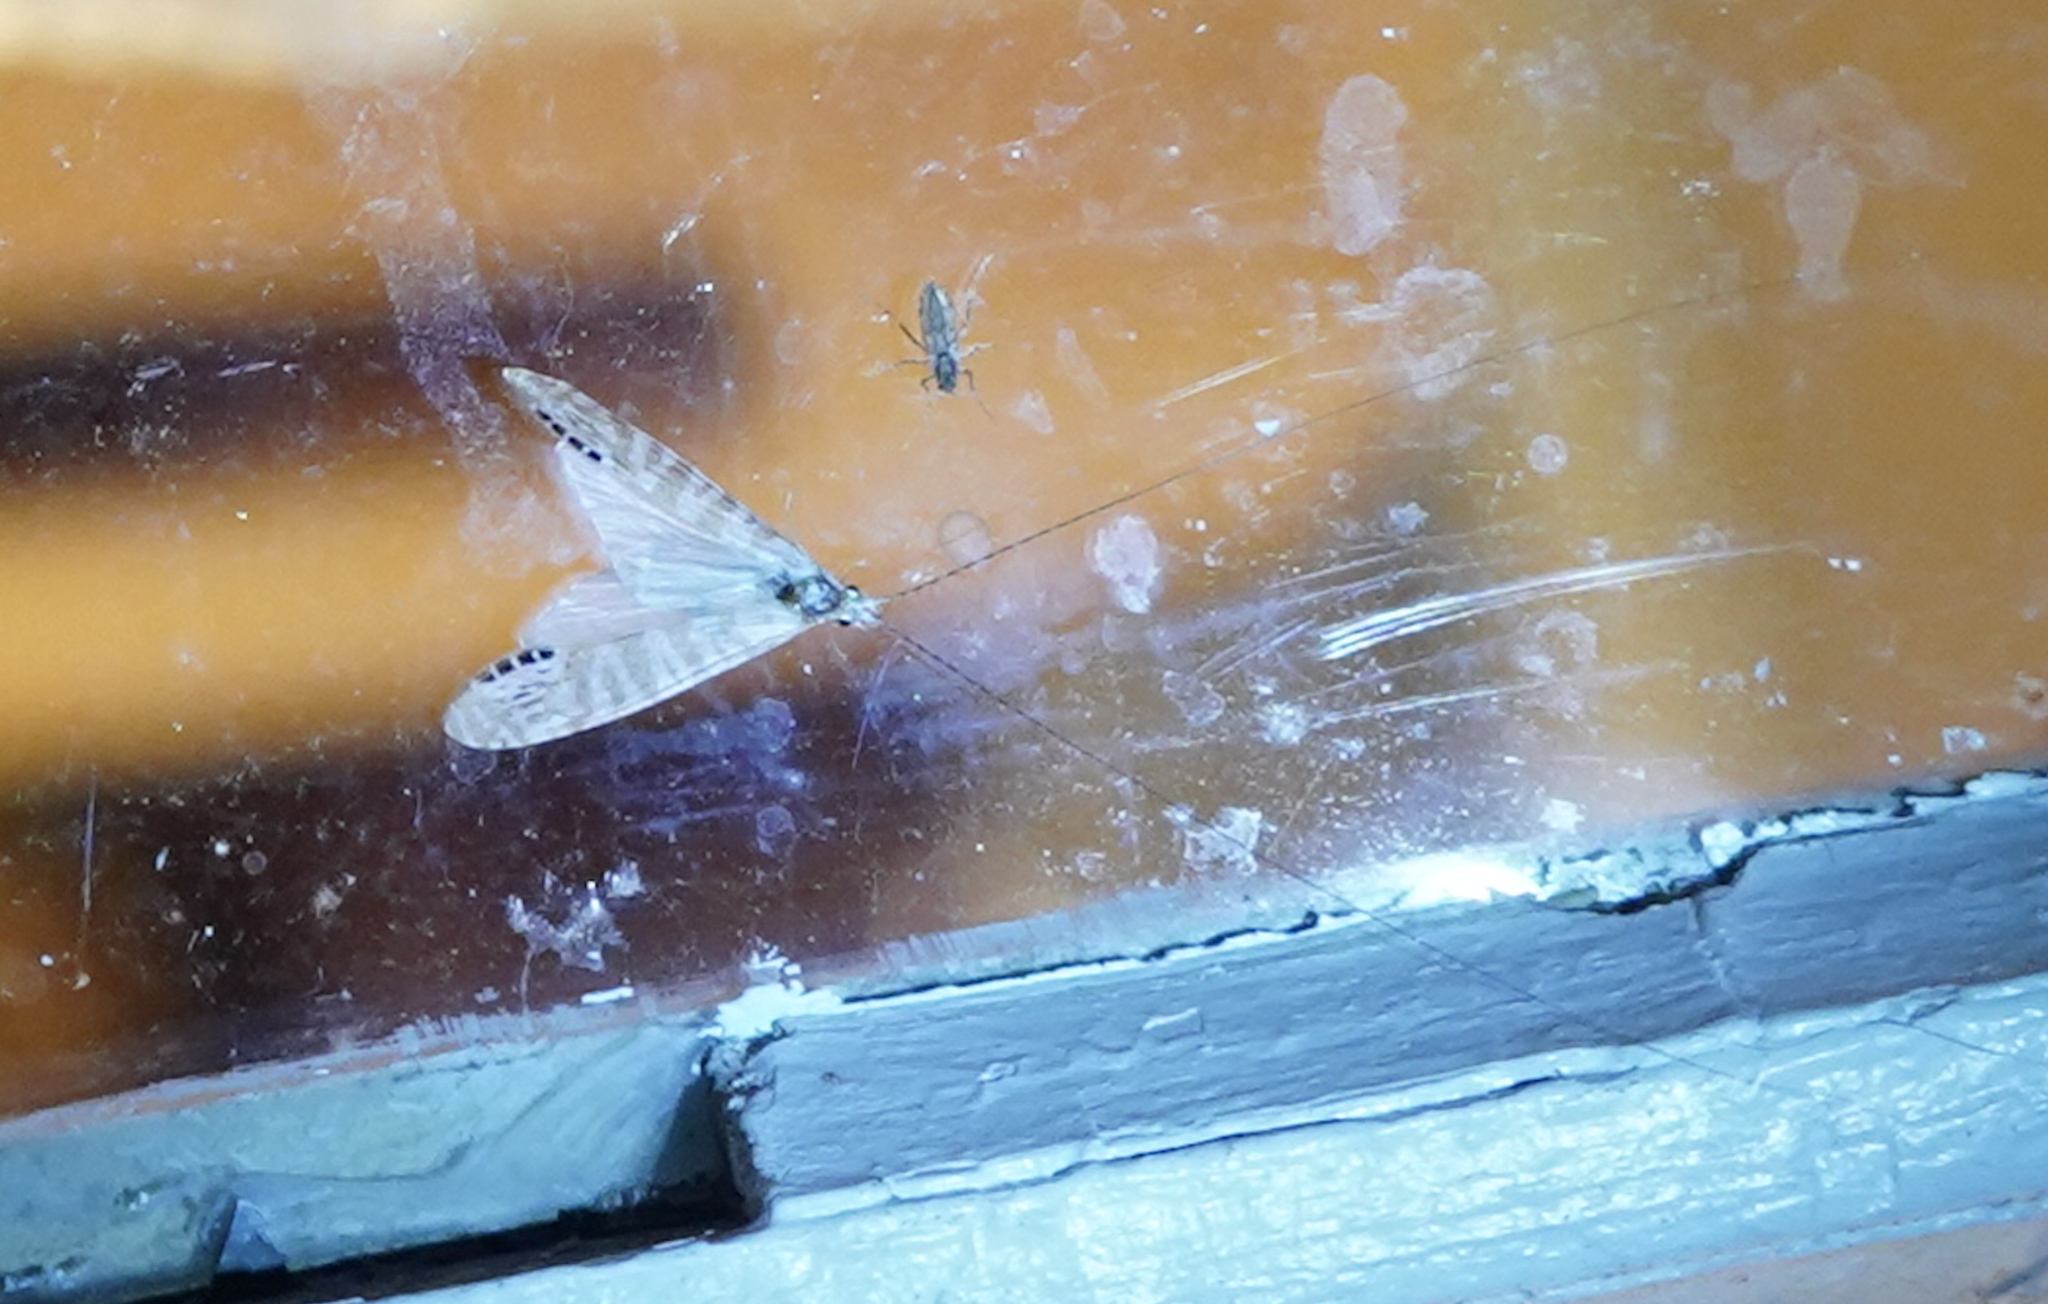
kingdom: Animalia
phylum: Arthropoda
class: Insecta
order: Trichoptera
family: Leptoceridae
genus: Nectopsyche
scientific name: Nectopsyche exquisita
